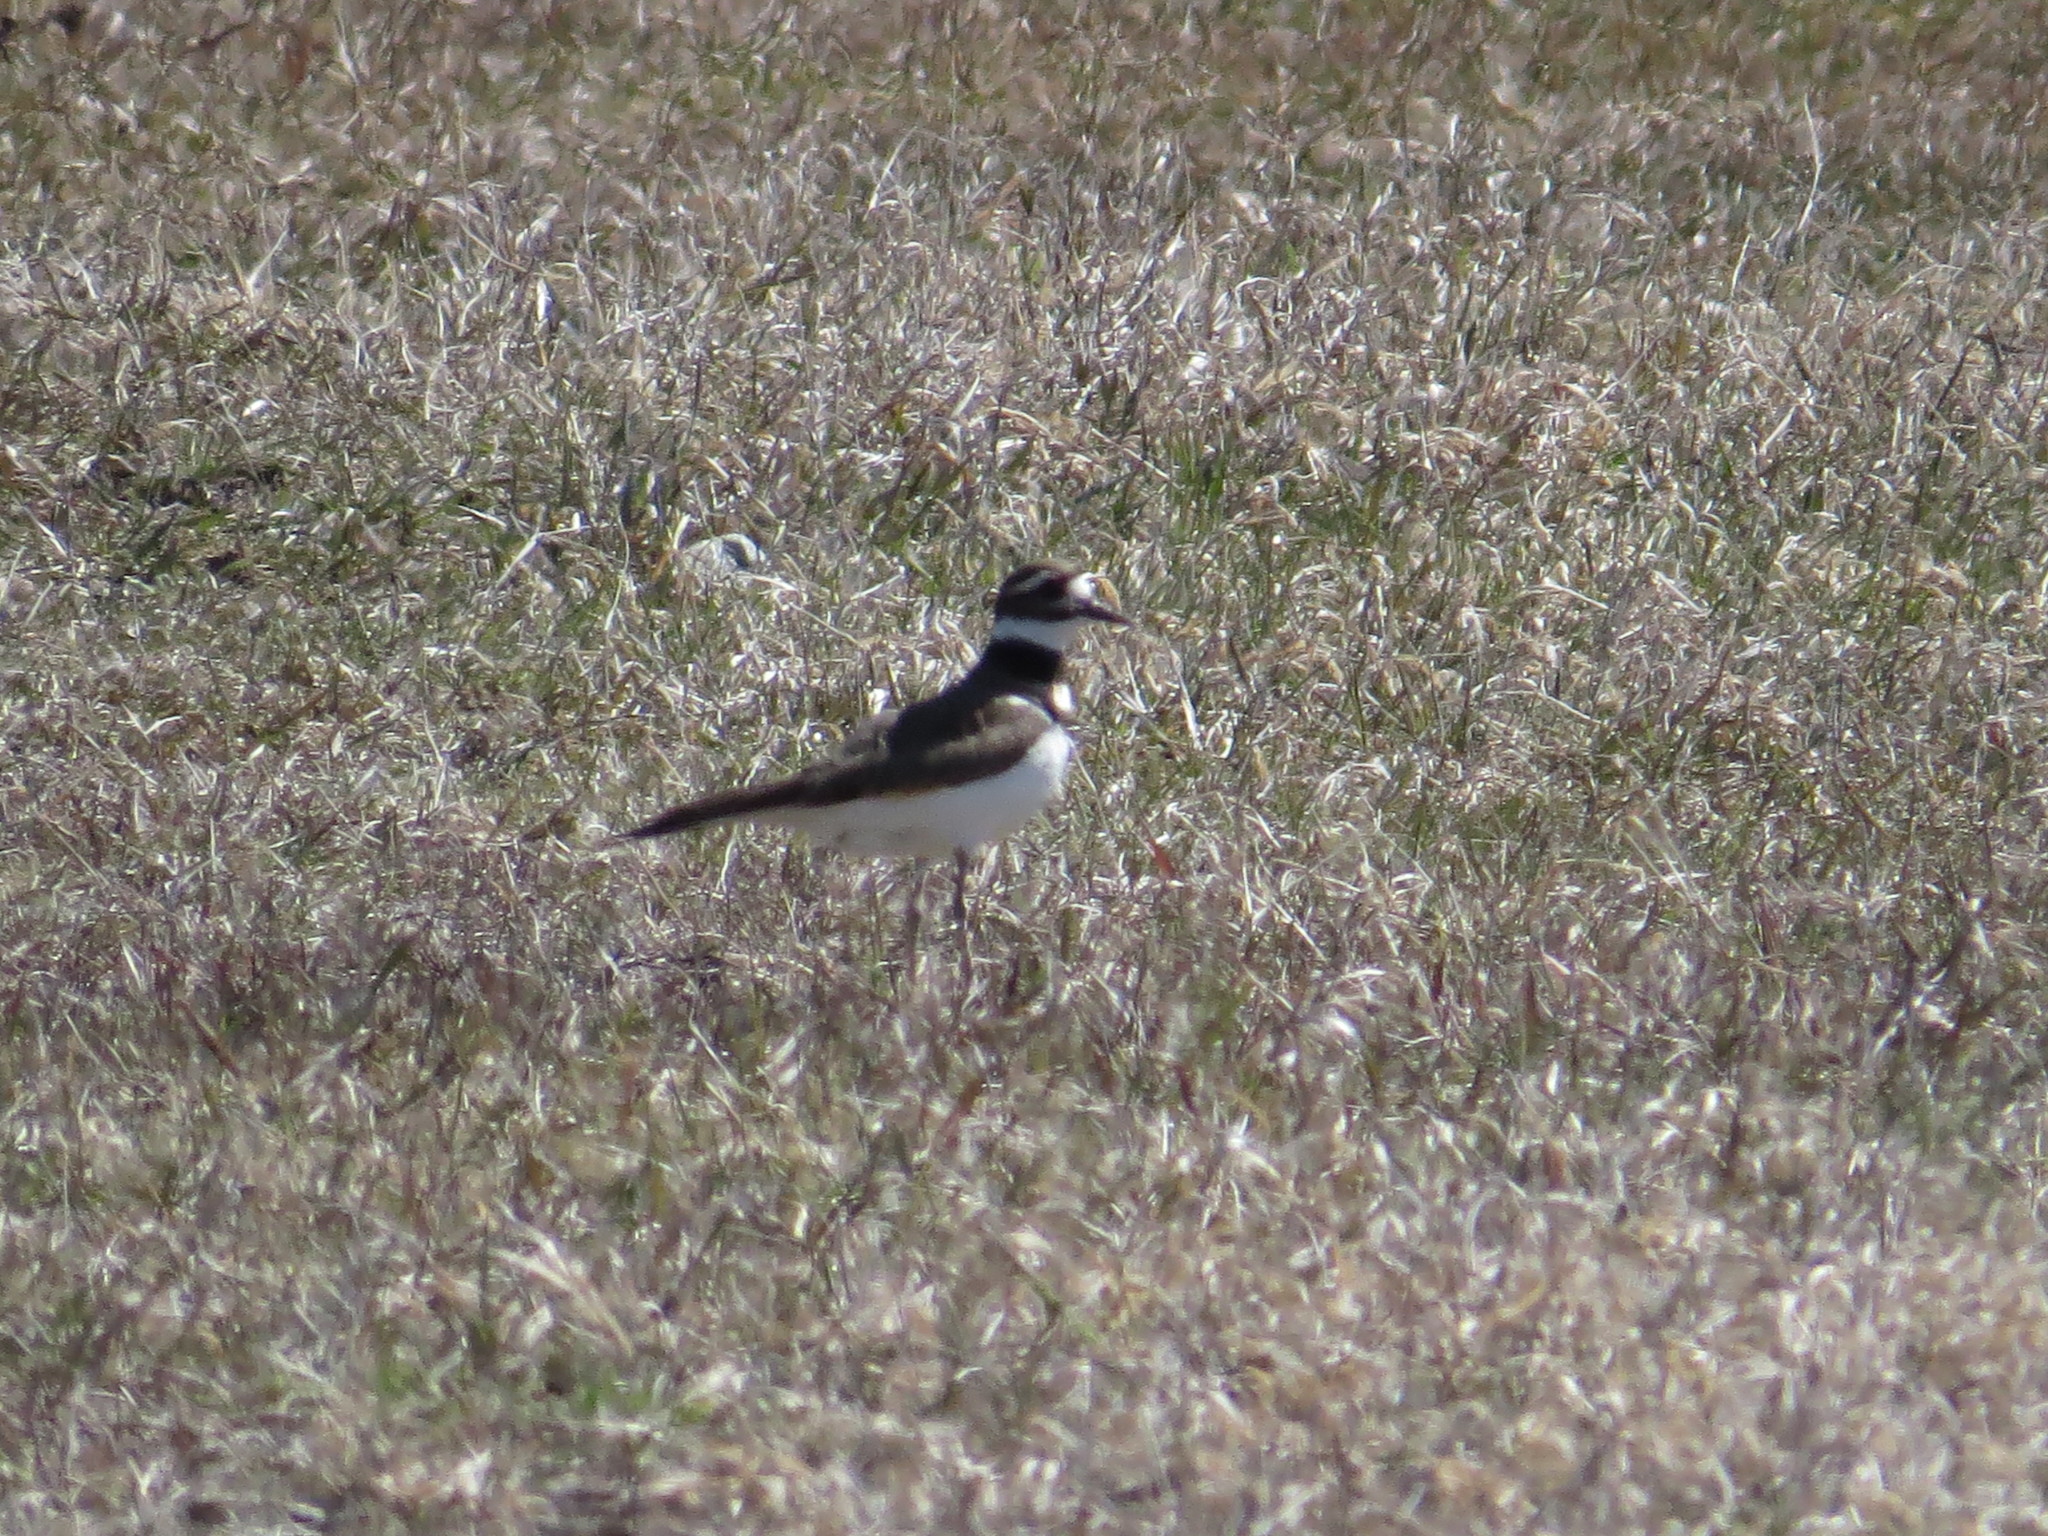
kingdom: Animalia
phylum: Chordata
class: Aves
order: Charadriiformes
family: Charadriidae
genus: Charadrius
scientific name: Charadrius vociferus
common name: Killdeer
